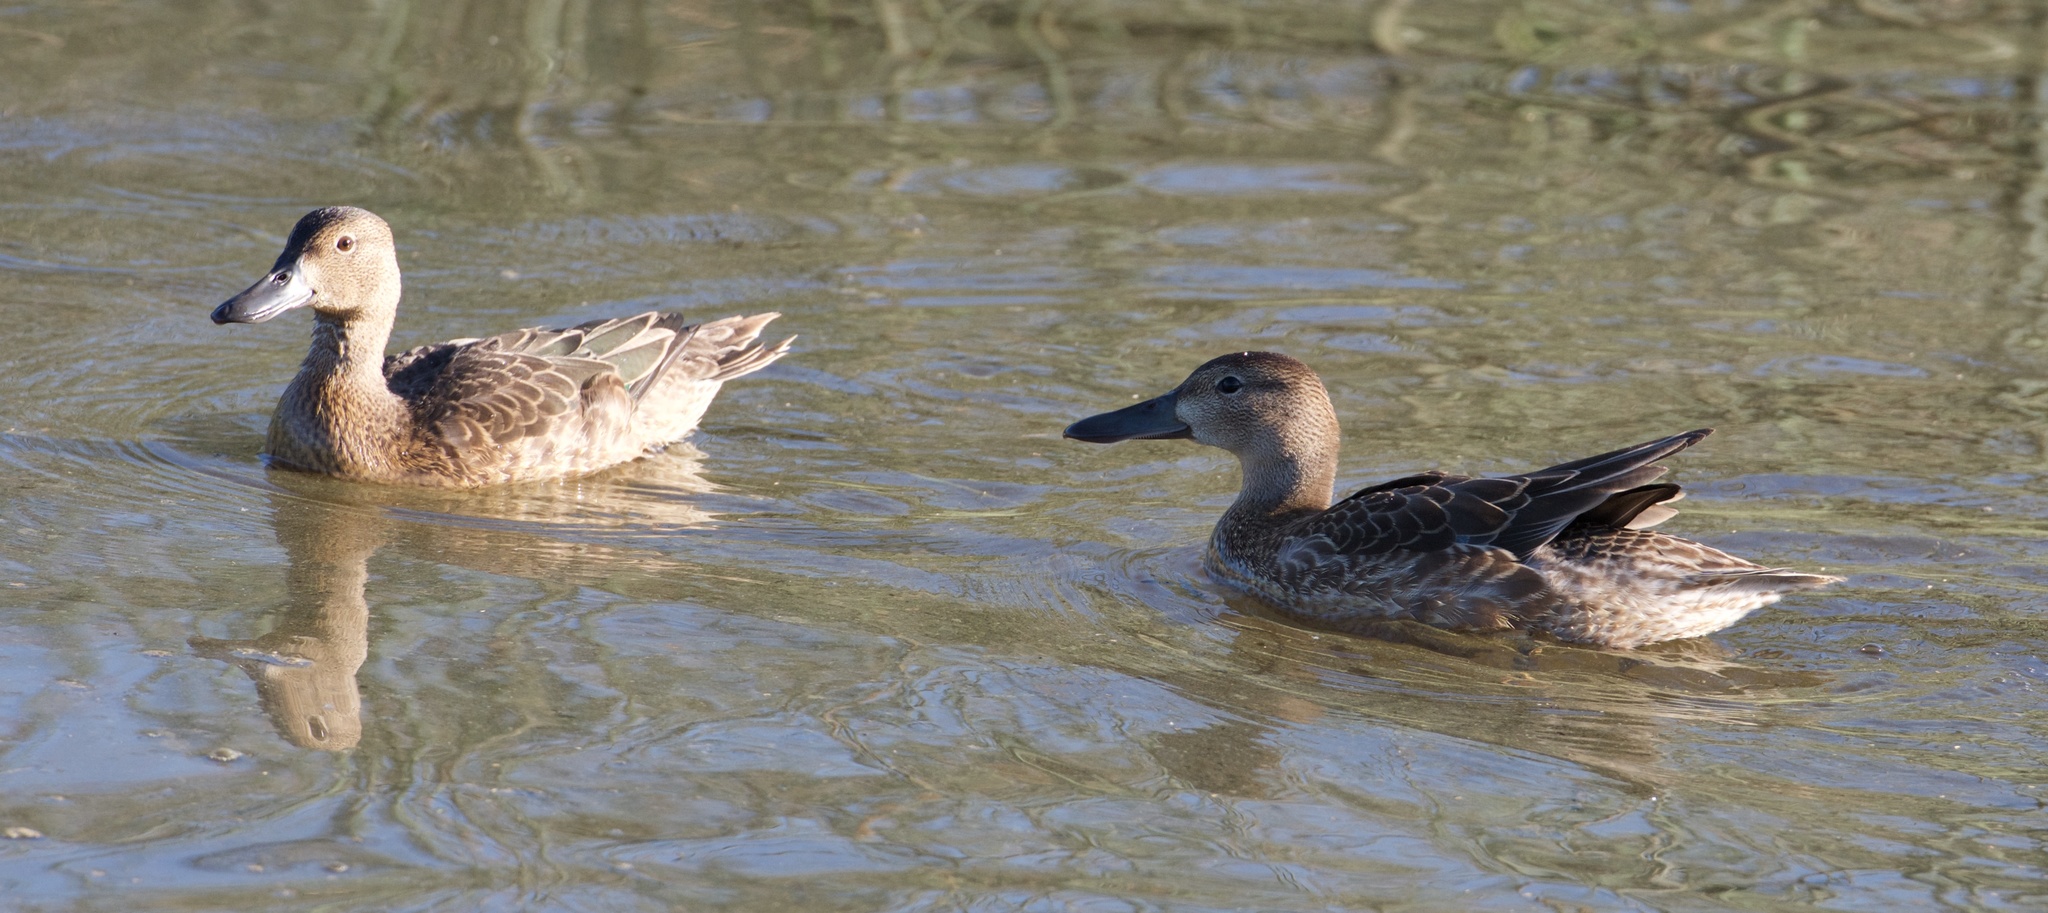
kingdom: Animalia
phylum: Chordata
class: Aves
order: Anseriformes
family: Anatidae
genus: Spatula
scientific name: Spatula discors
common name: Blue-winged teal
